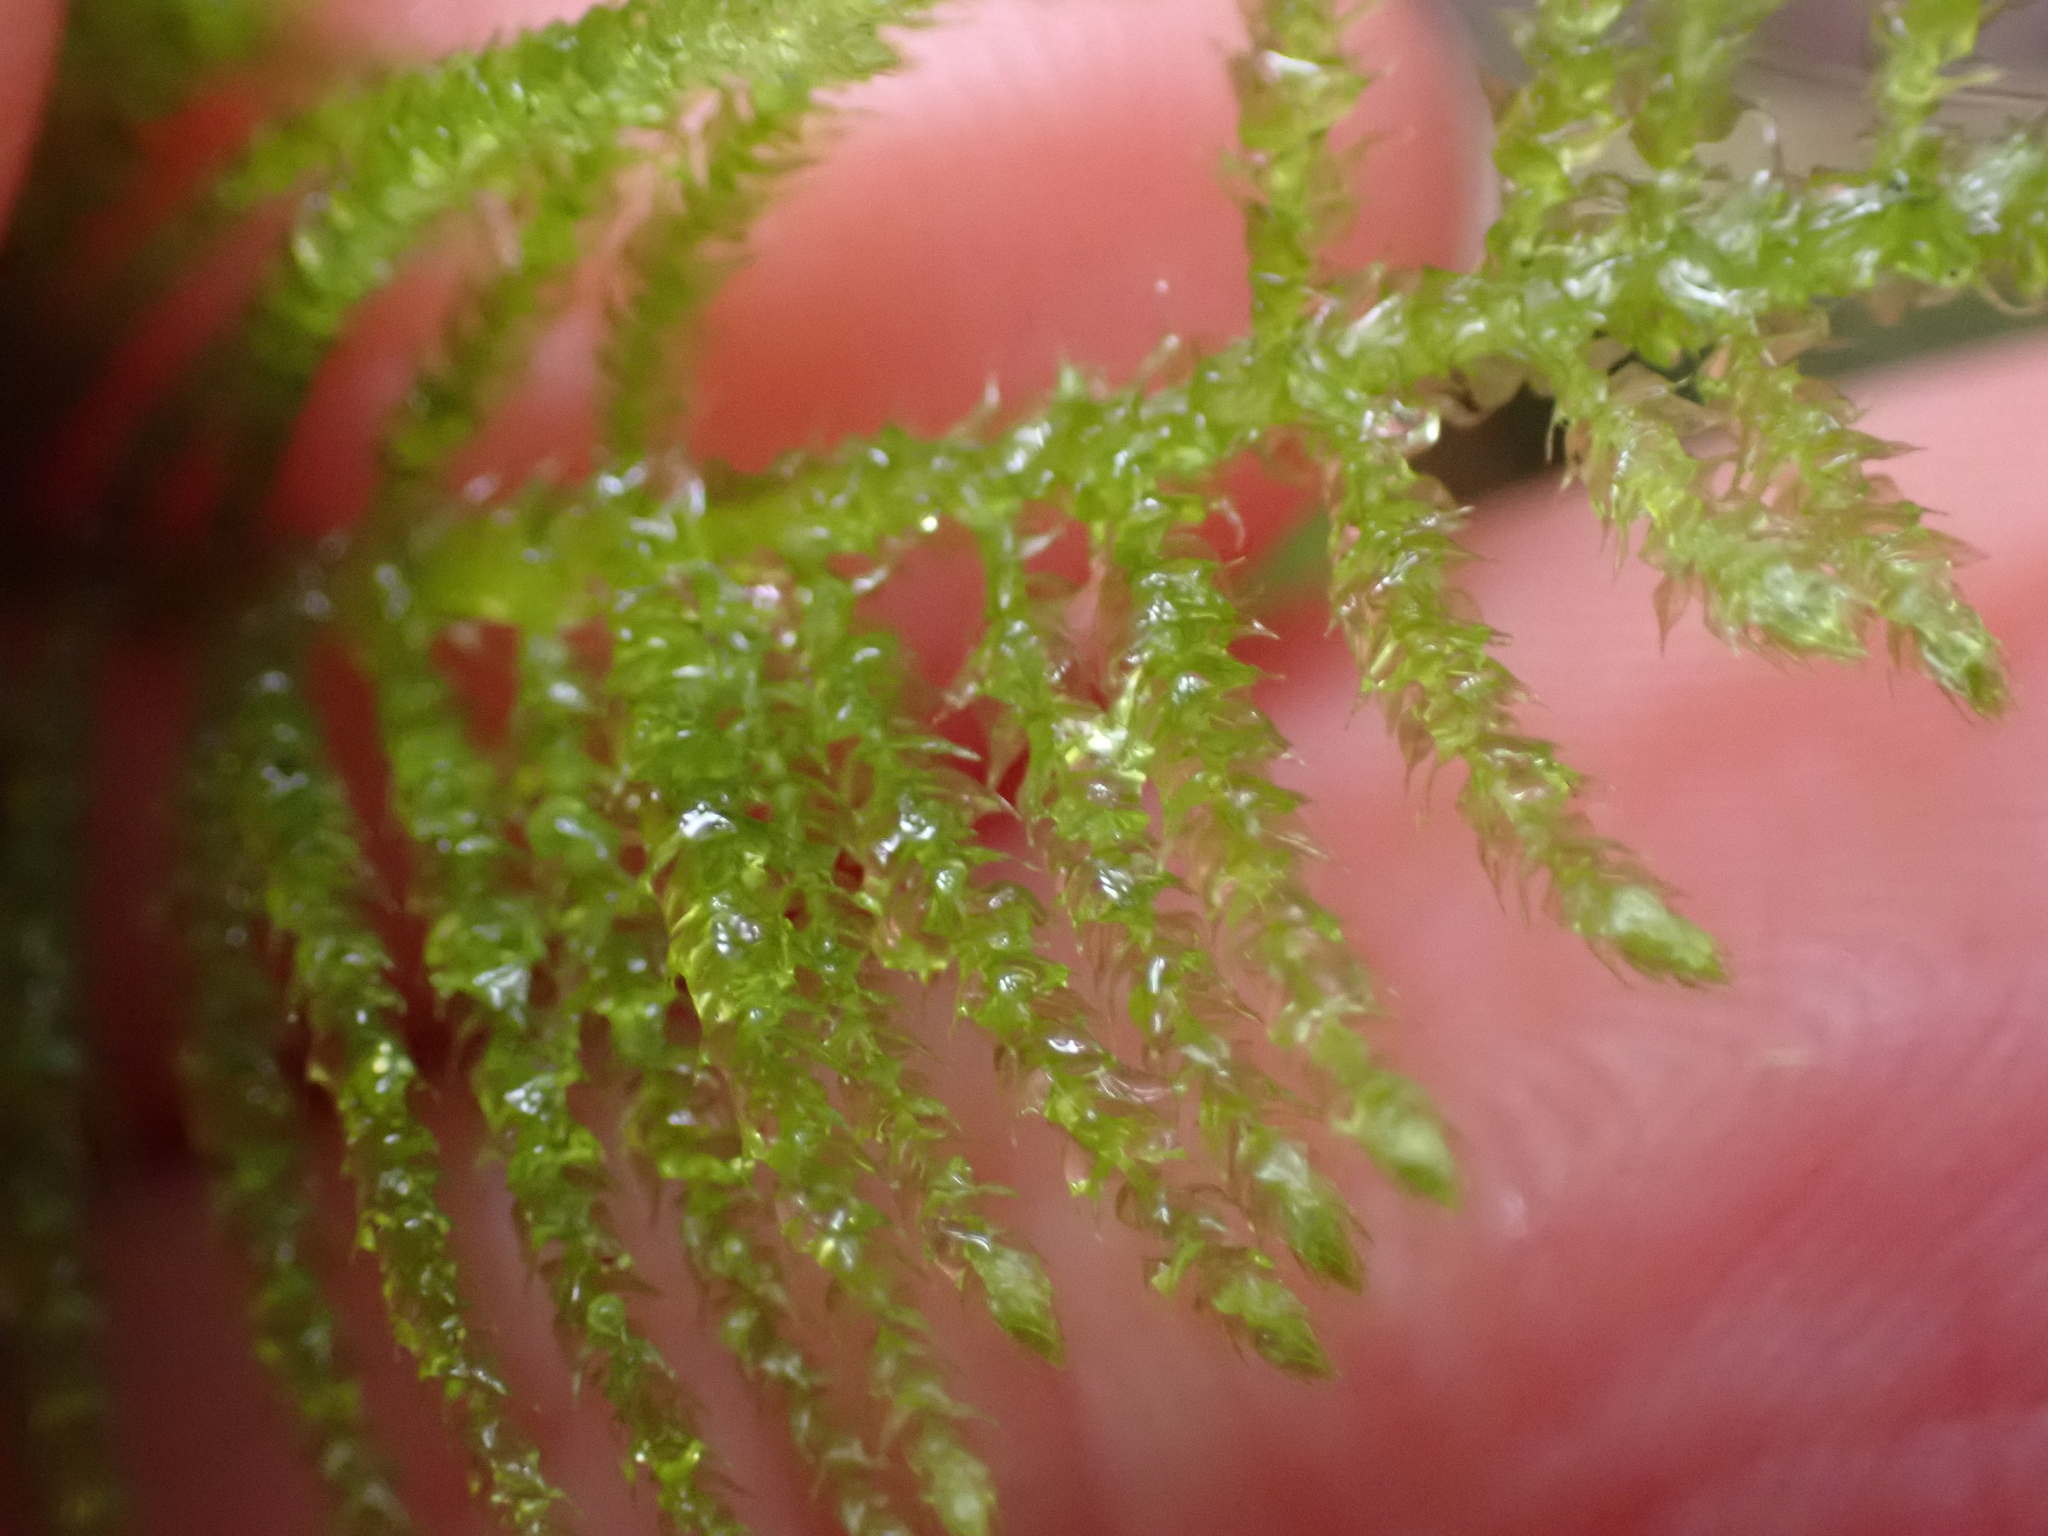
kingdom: Plantae
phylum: Bryophyta
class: Bryopsida
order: Hypnales
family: Brachytheciaceae
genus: Kindbergia
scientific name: Kindbergia oregana
